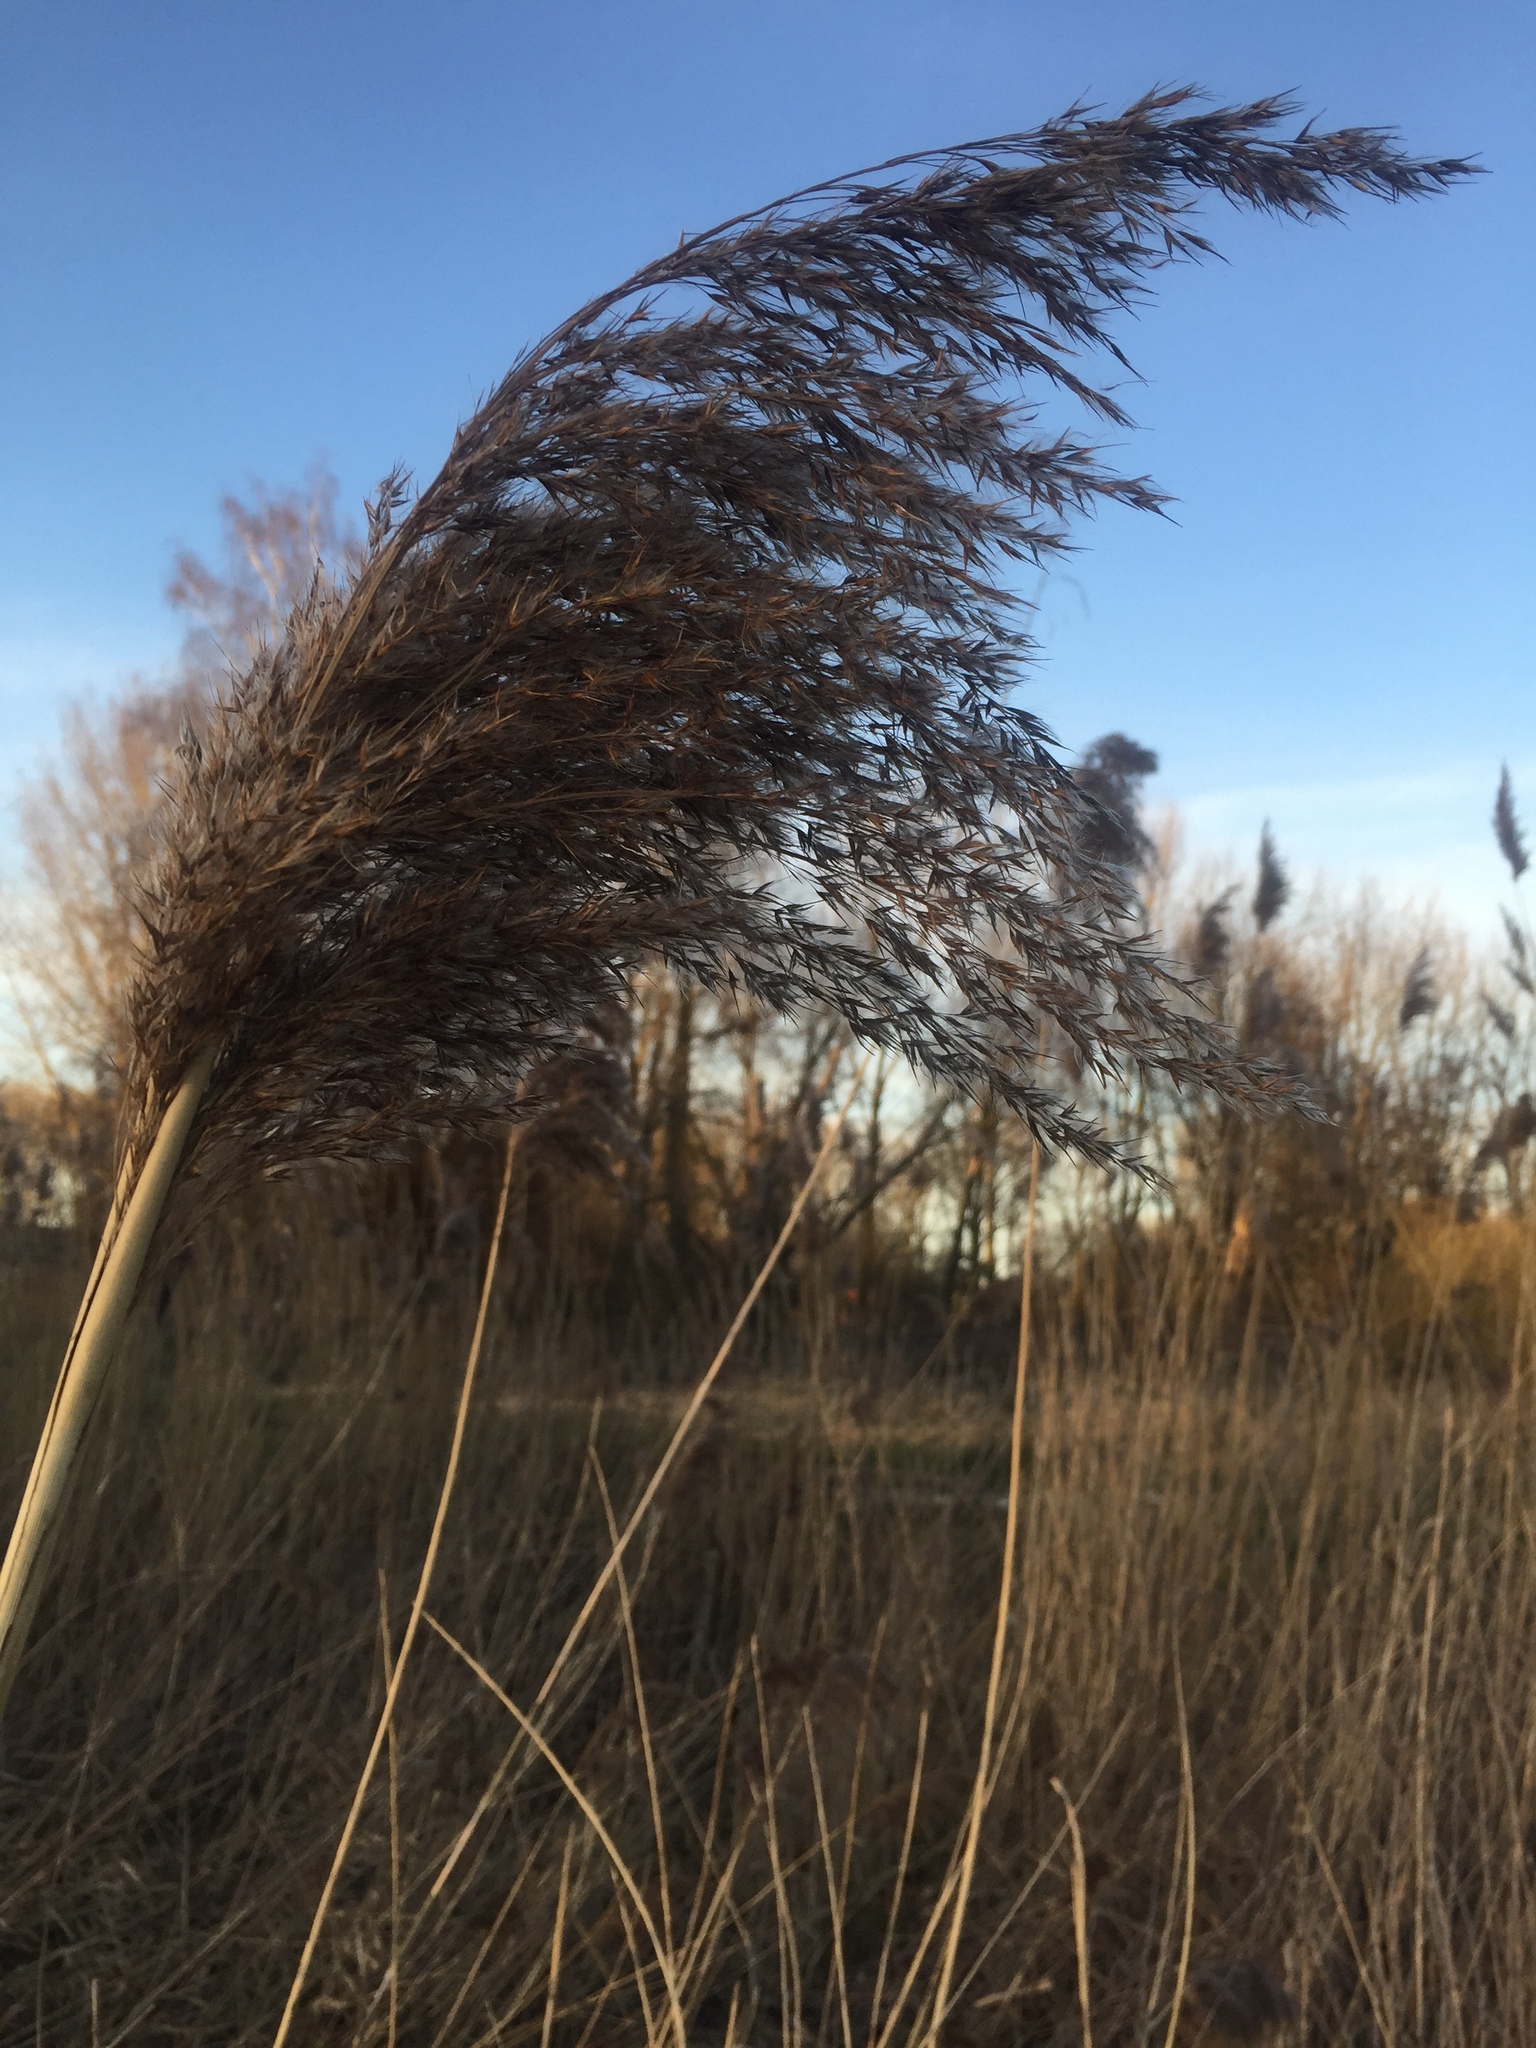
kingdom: Plantae
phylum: Tracheophyta
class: Liliopsida
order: Poales
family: Poaceae
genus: Phragmites
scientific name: Phragmites australis
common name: Common reed
